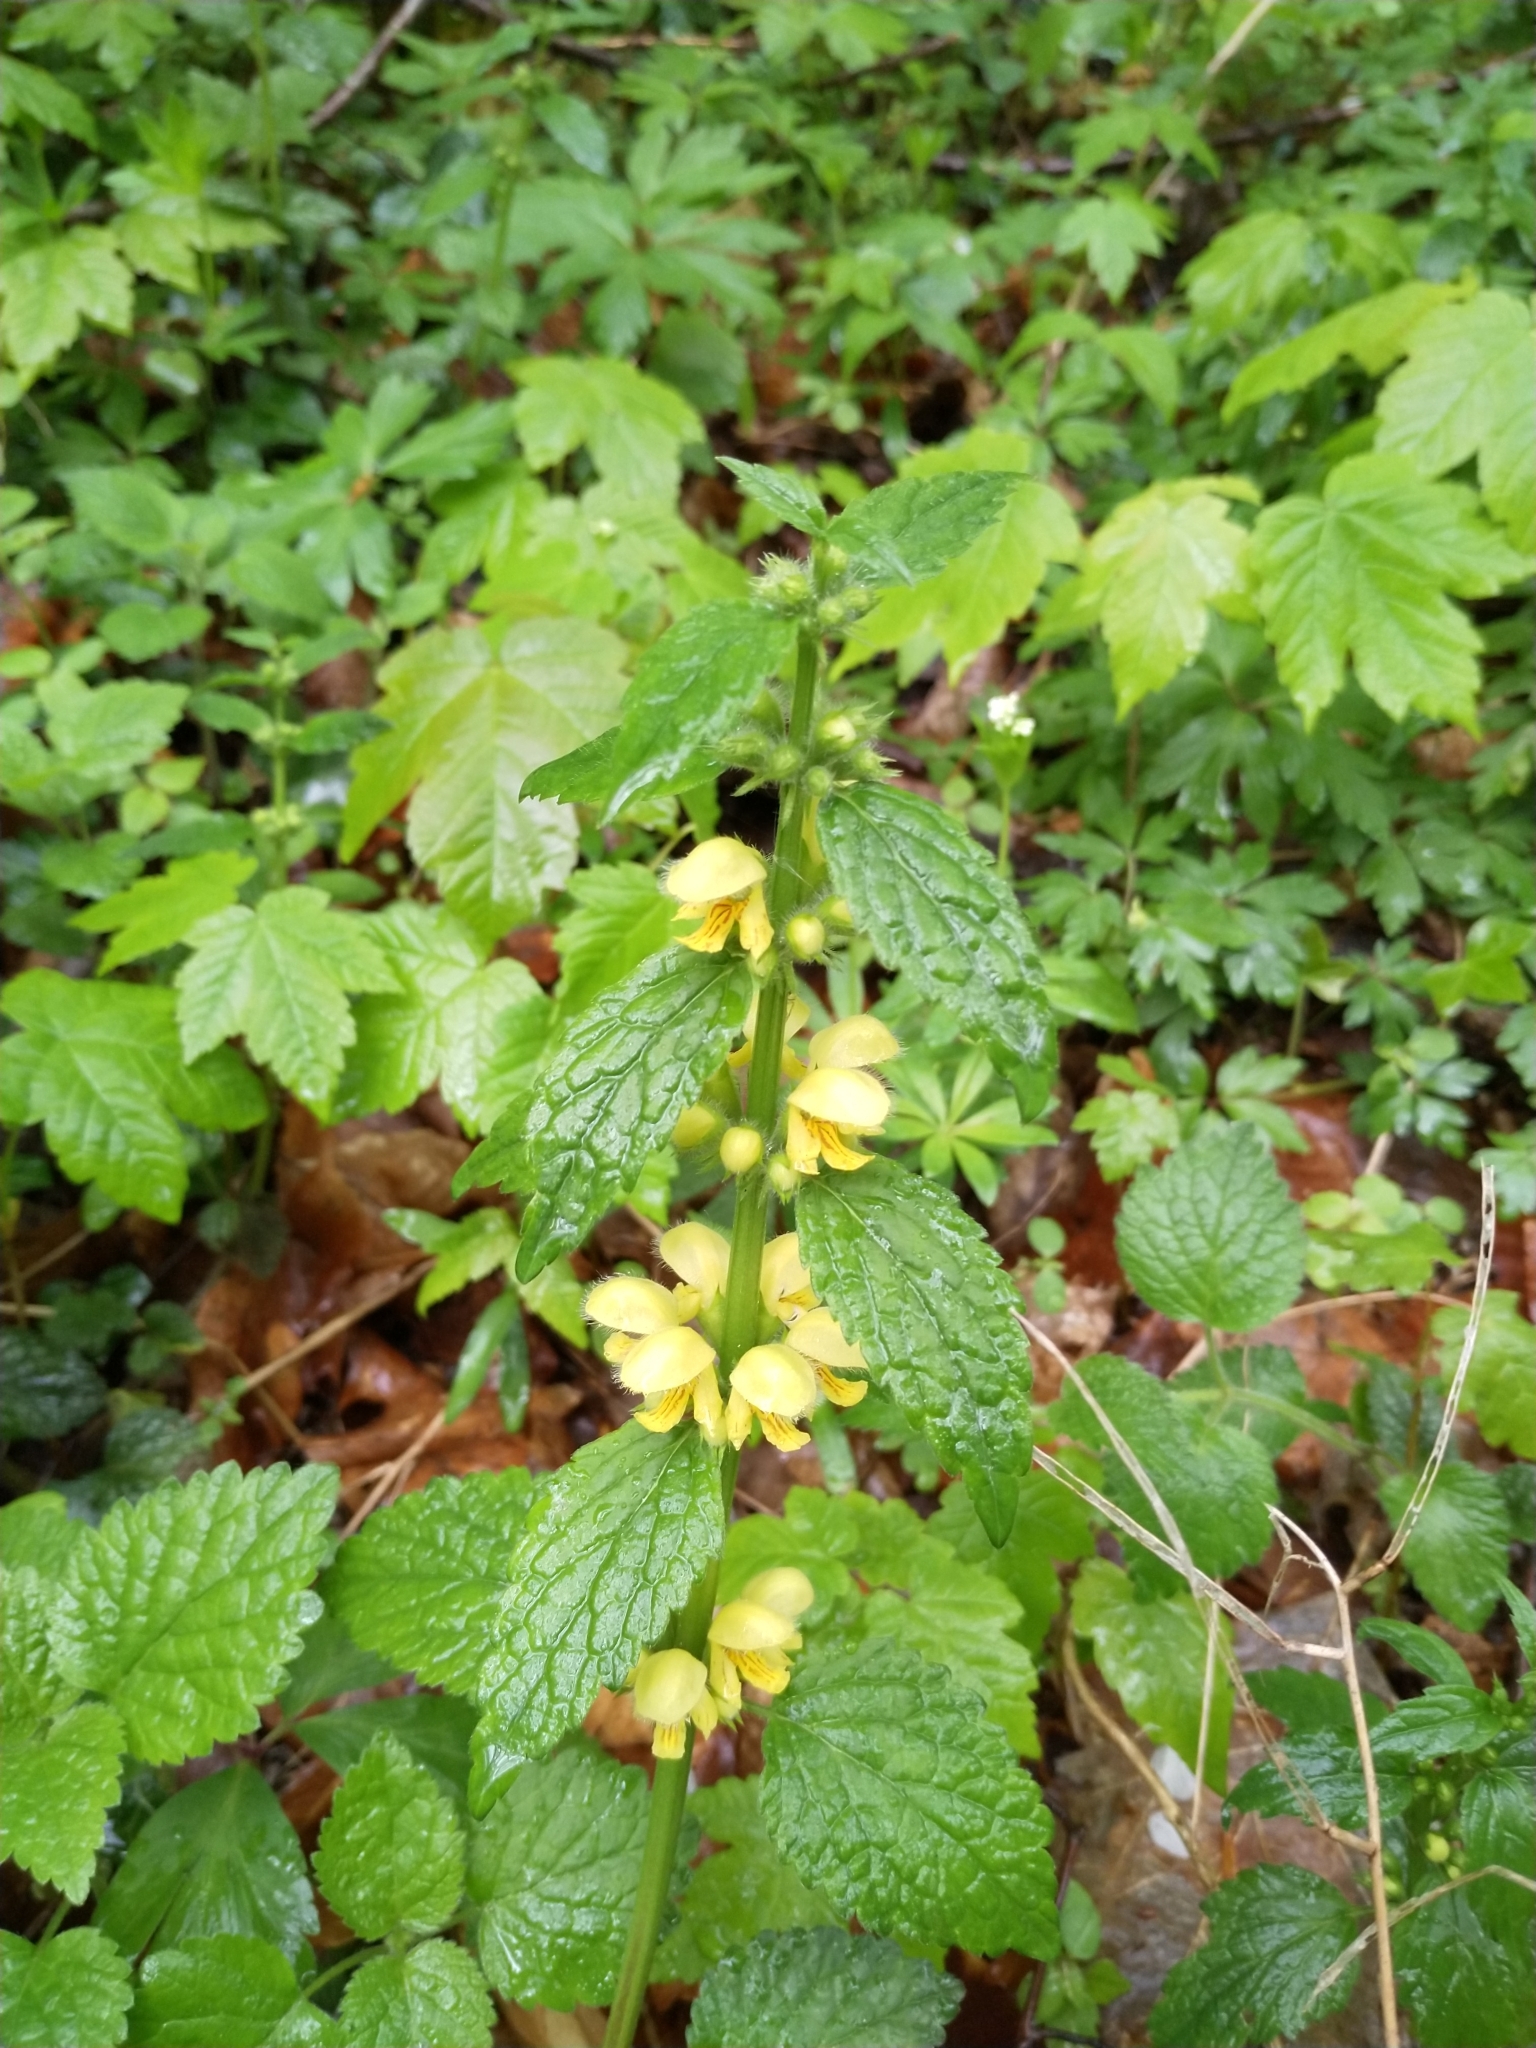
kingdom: Plantae
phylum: Tracheophyta
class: Magnoliopsida
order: Lamiales
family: Lamiaceae
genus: Lamium
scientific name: Lamium galeobdolon
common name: Yellow archangel
